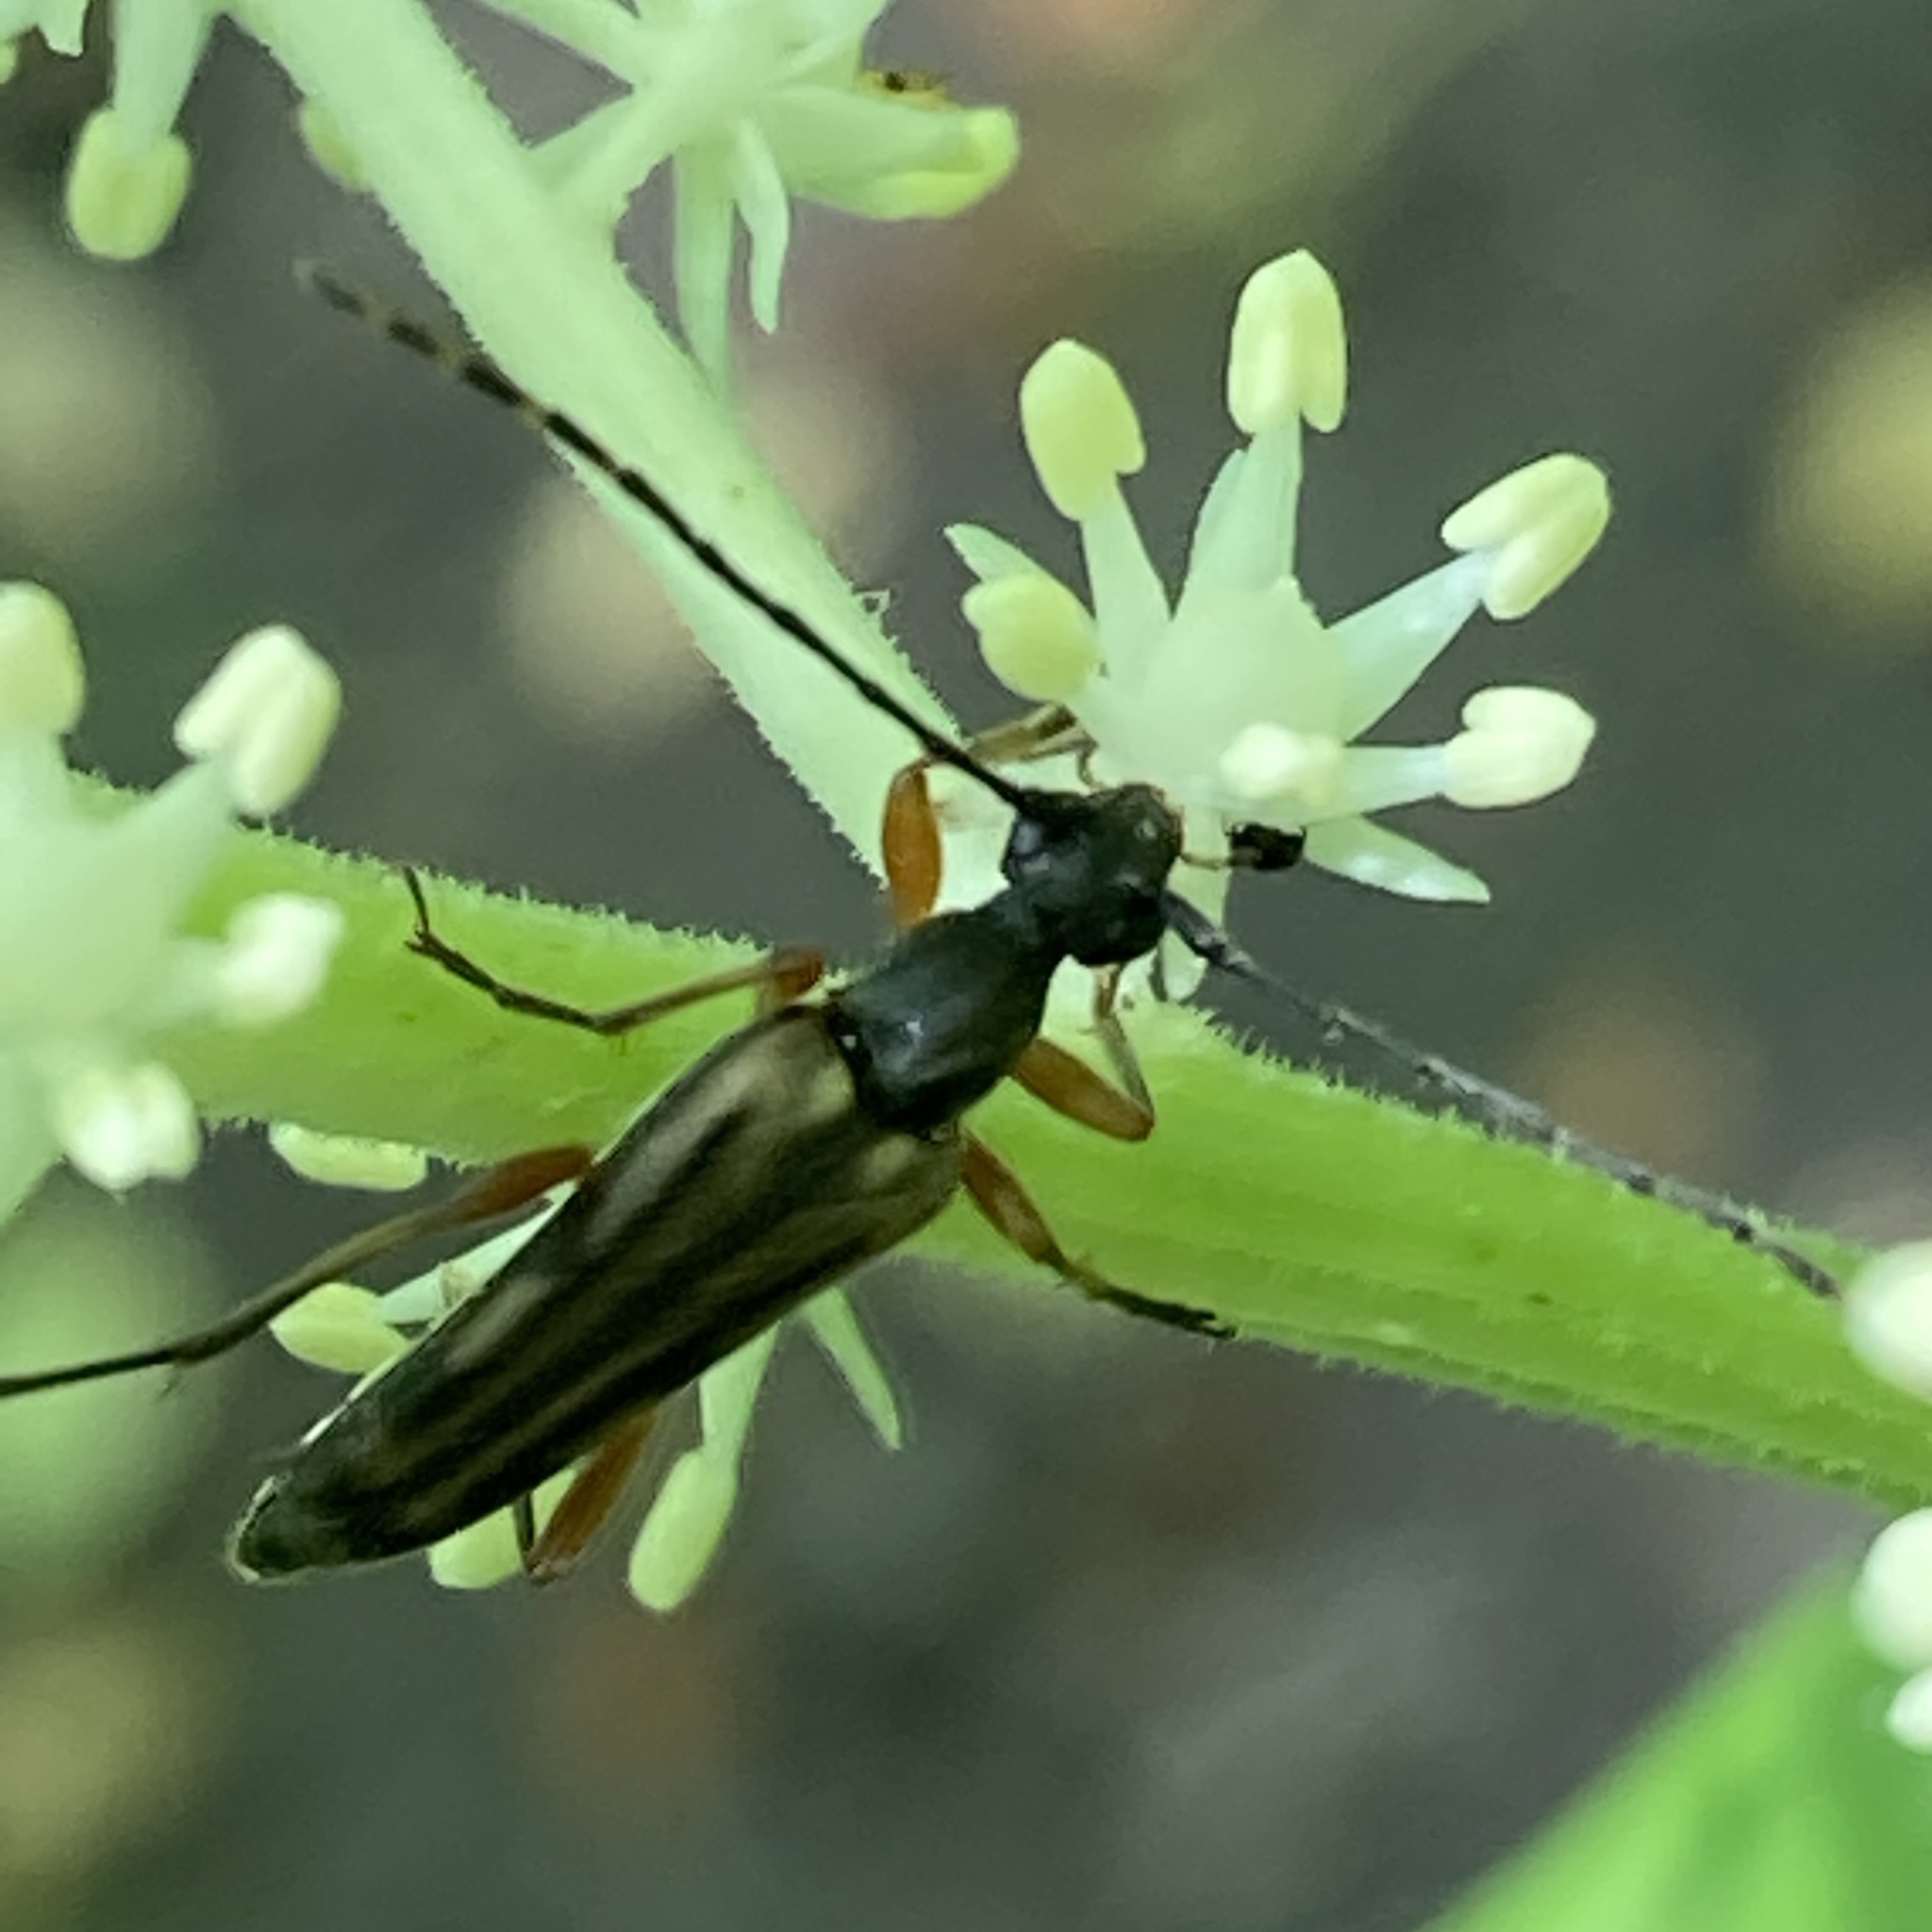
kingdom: Animalia
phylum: Arthropoda
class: Insecta
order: Coleoptera
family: Cerambycidae
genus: Analeptura
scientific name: Analeptura lineola
